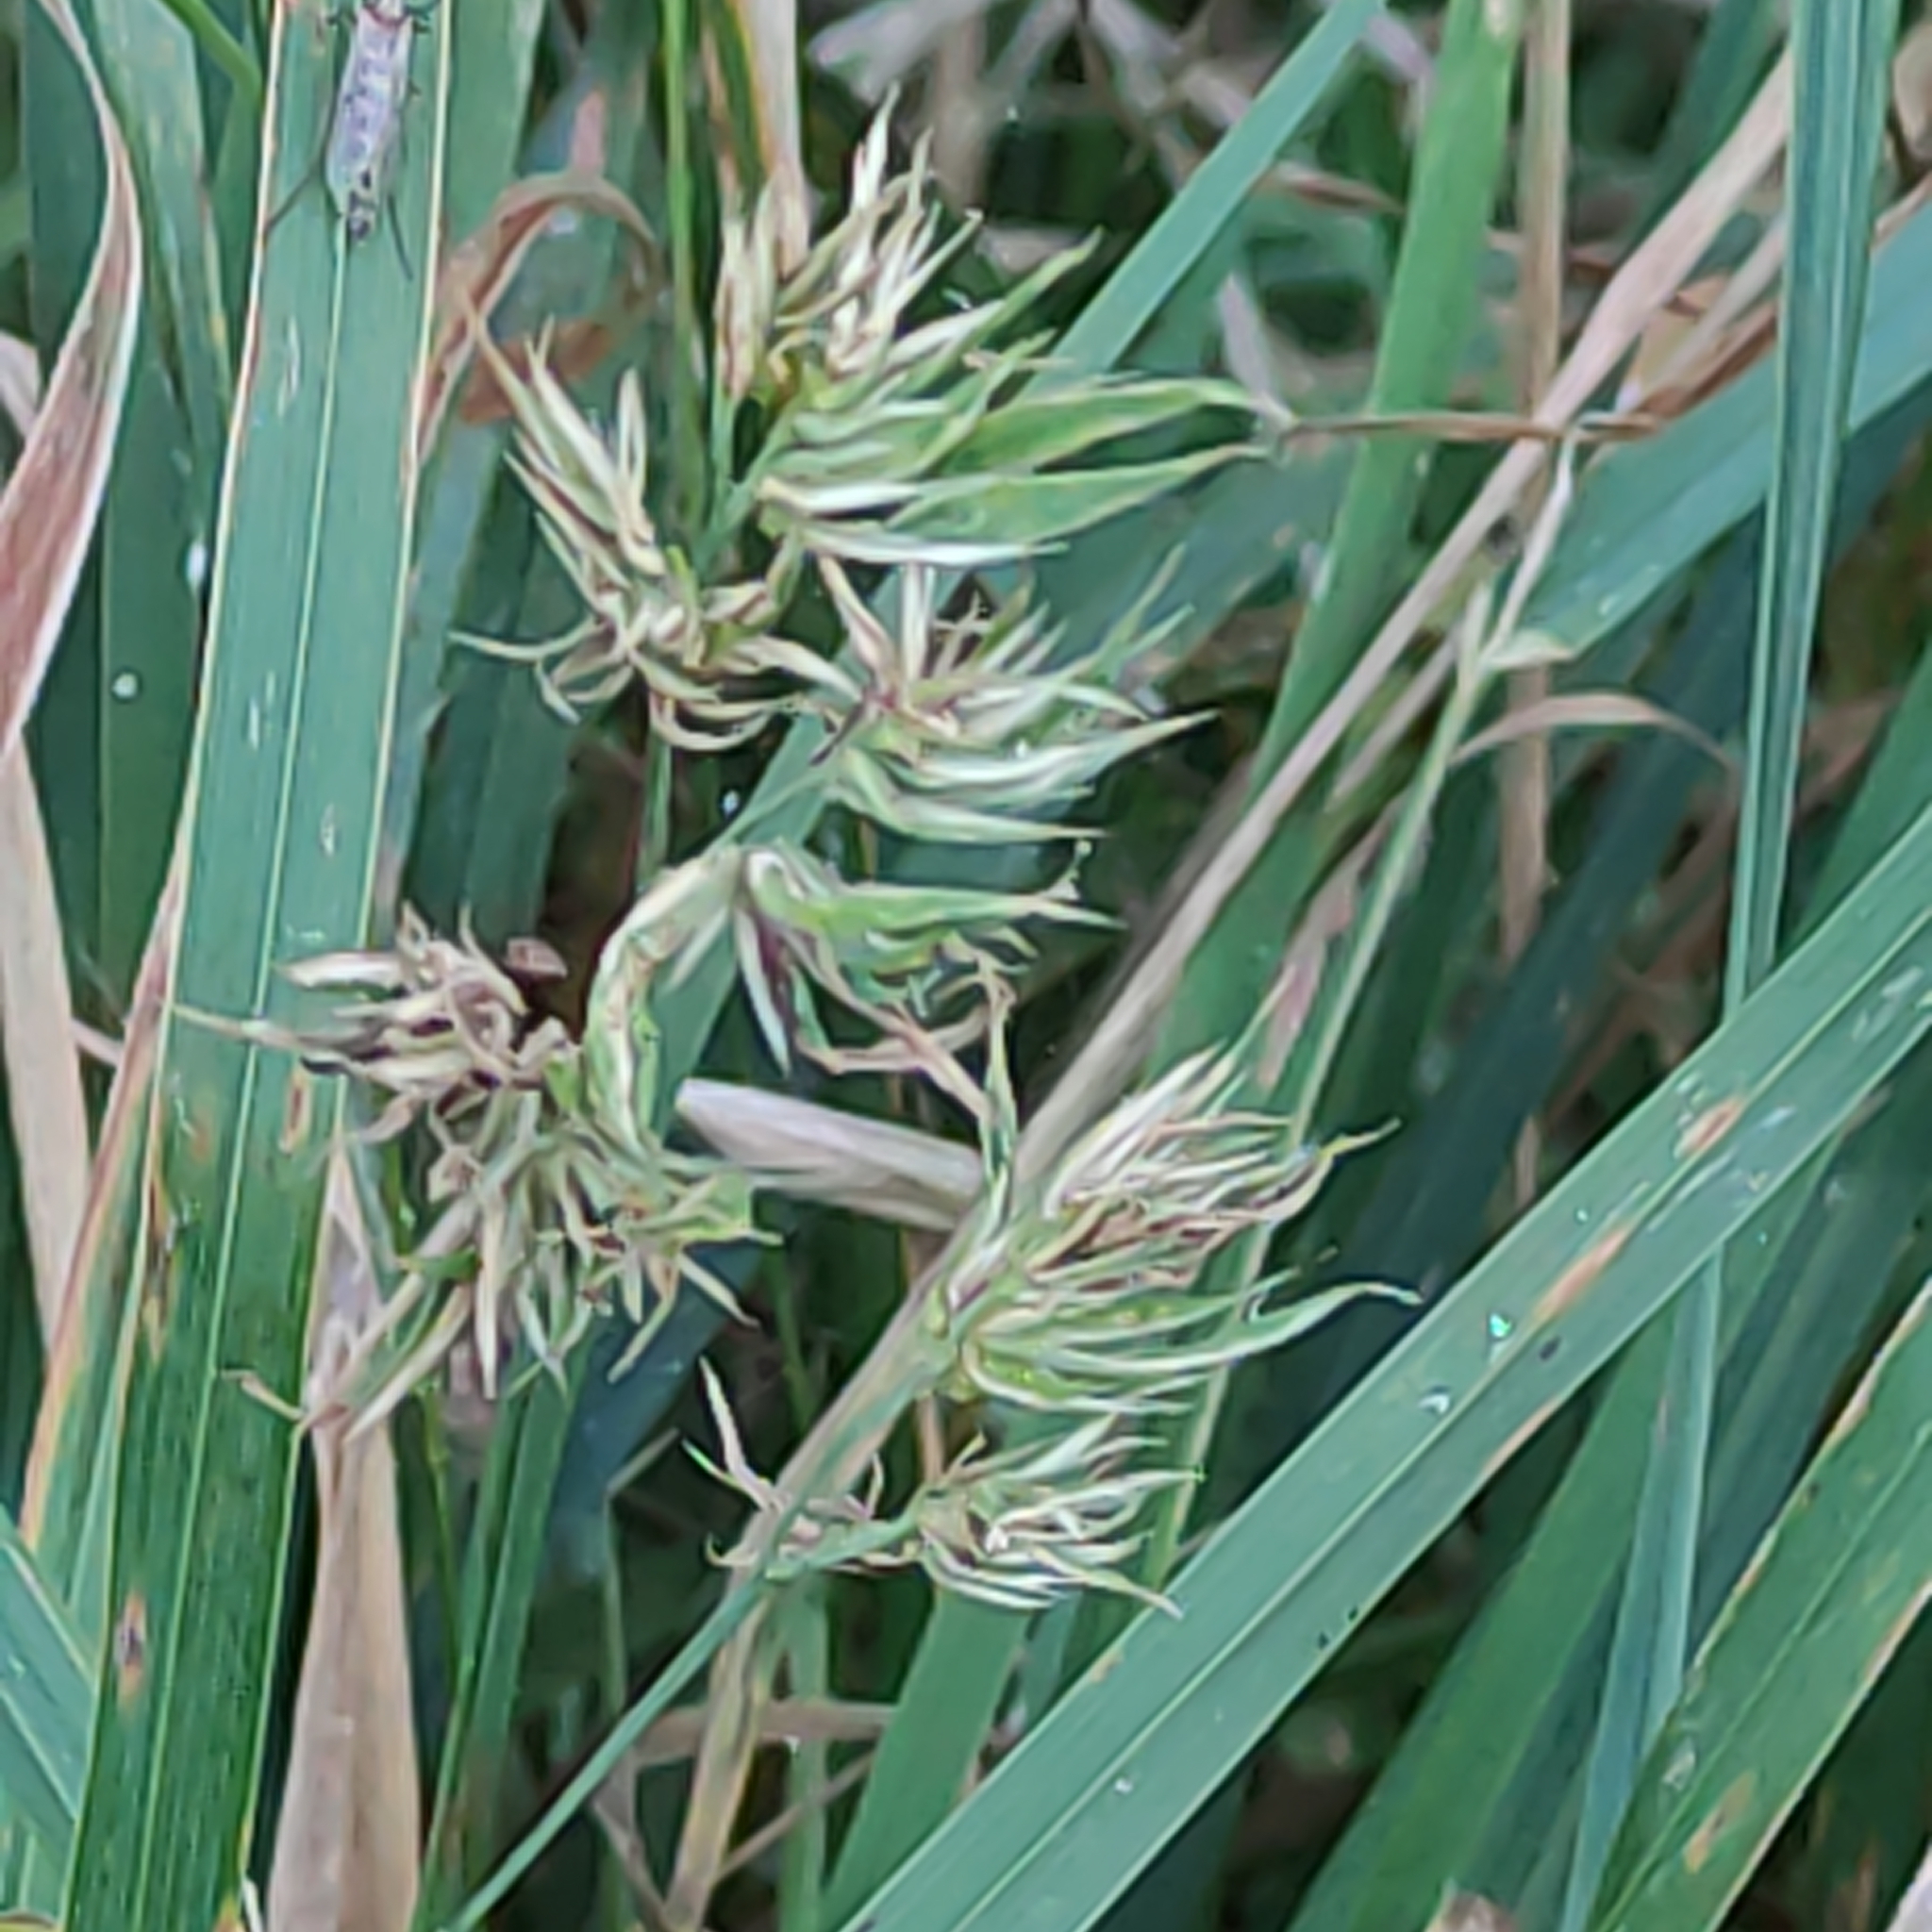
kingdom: Plantae
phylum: Tracheophyta
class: Liliopsida
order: Poales
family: Poaceae
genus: Dactylis
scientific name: Dactylis glomerata
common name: Orchardgrass
